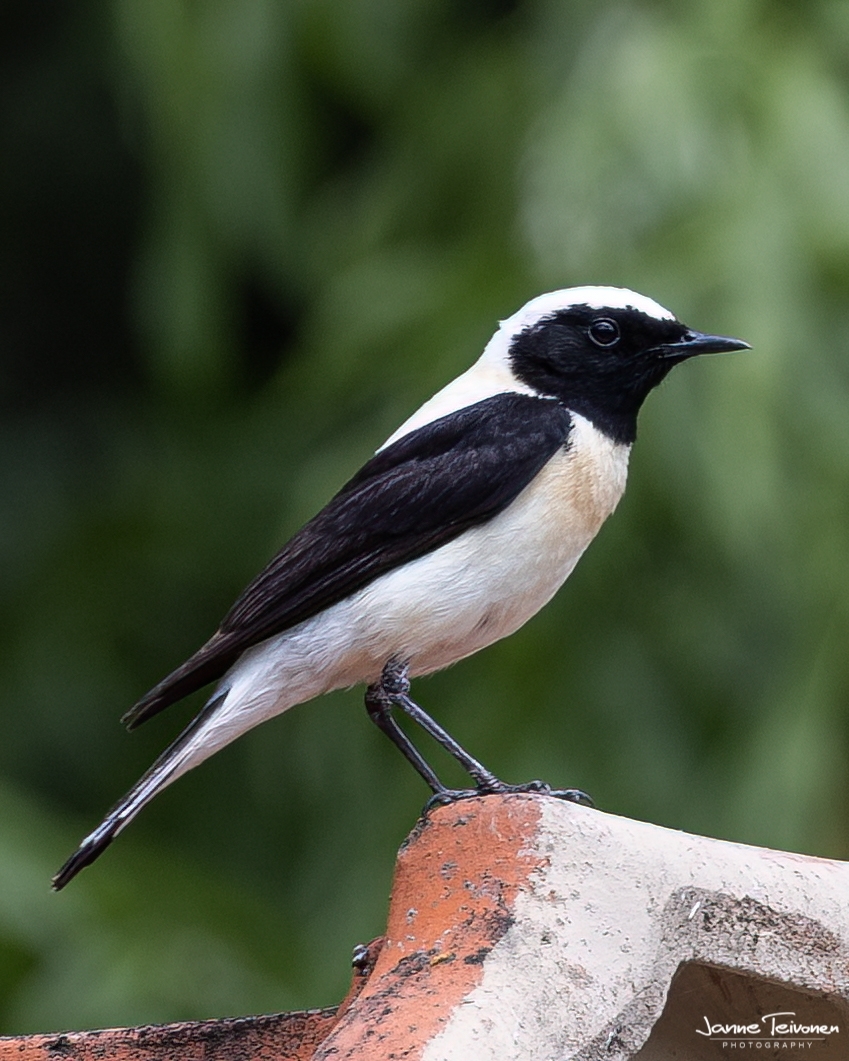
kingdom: Animalia
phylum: Chordata
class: Aves
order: Passeriformes
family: Muscicapidae
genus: Oenanthe
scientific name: Oenanthe hispanica
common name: Black-eared wheatear
